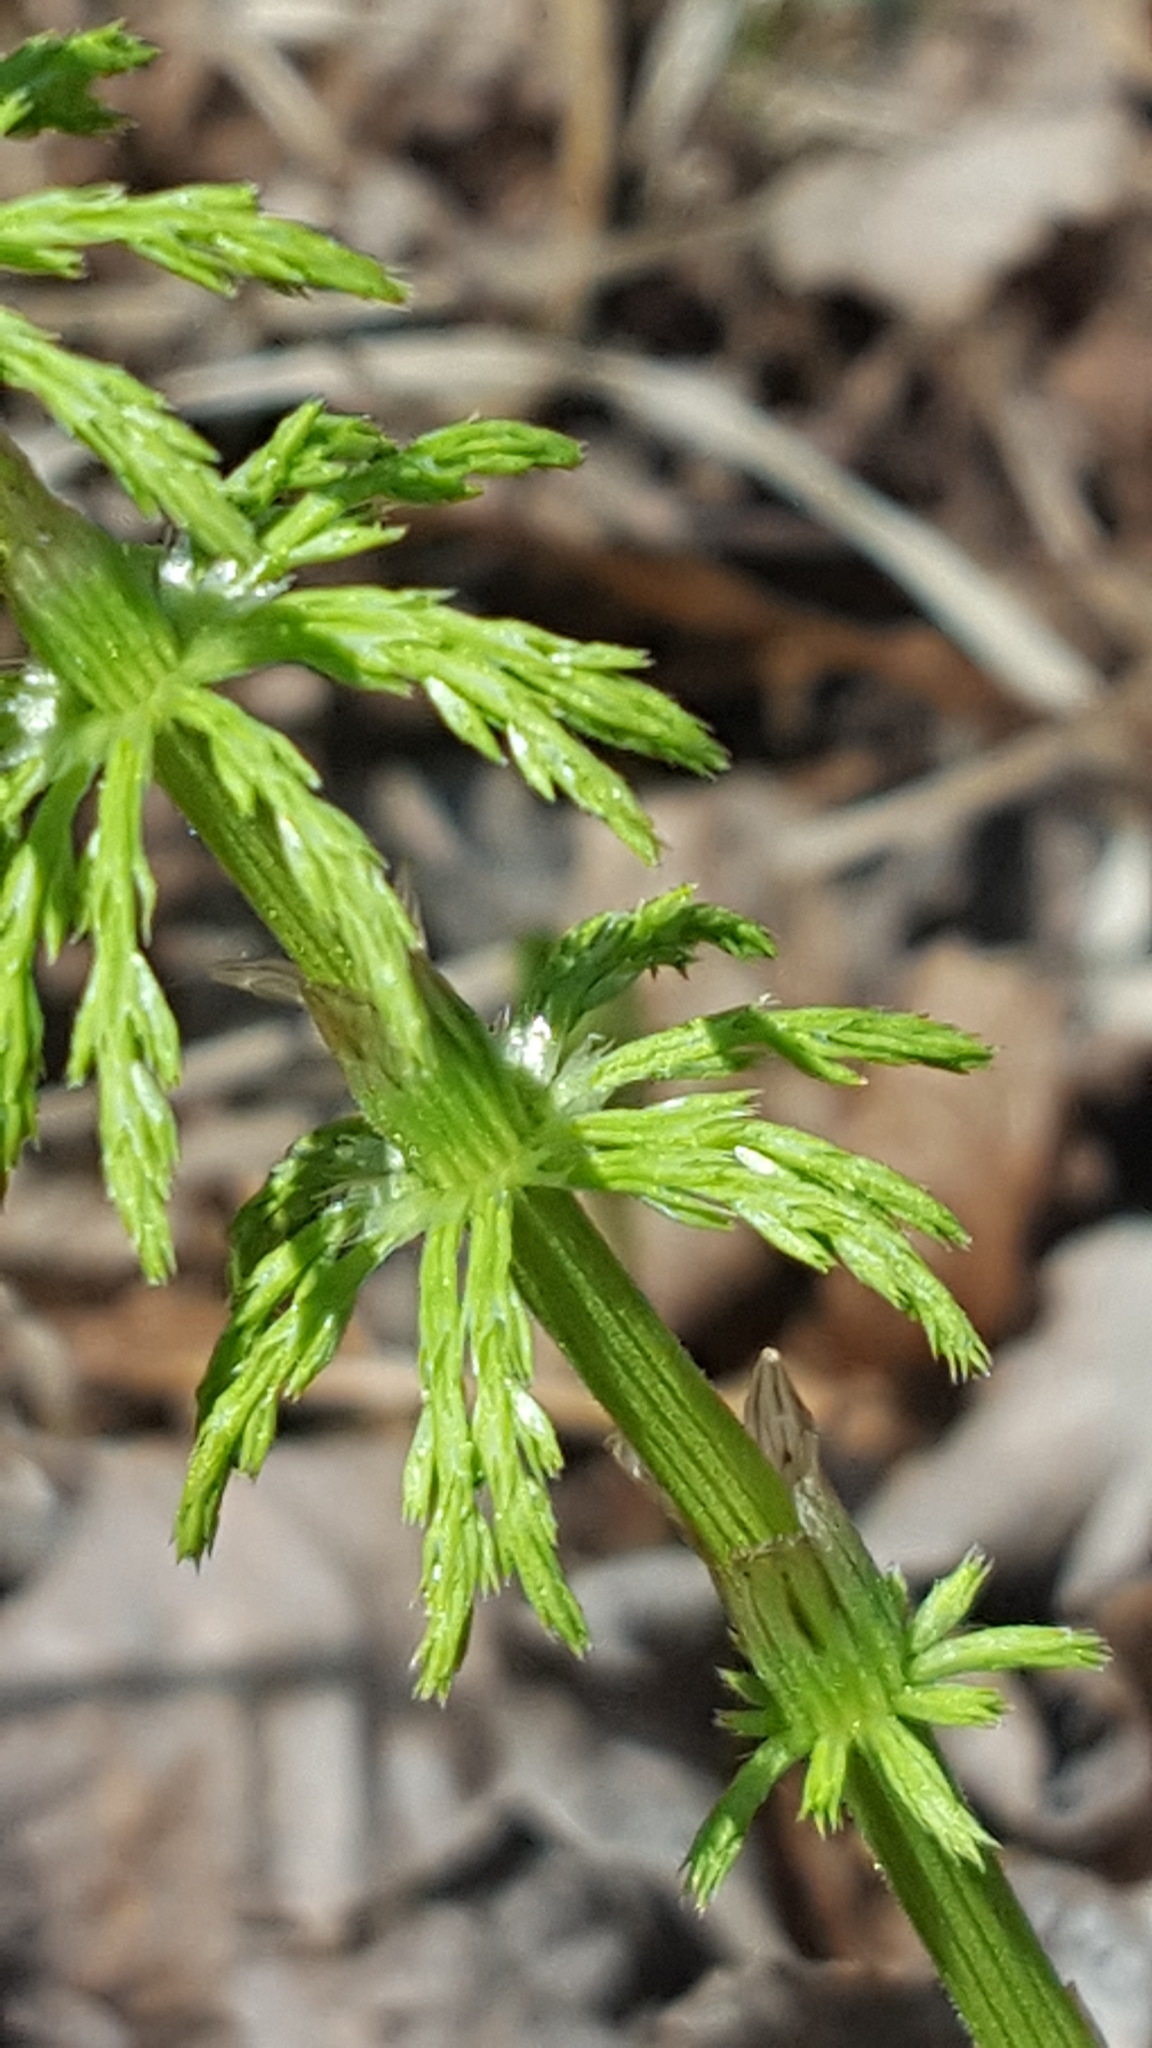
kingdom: Plantae
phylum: Tracheophyta
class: Polypodiopsida
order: Equisetales
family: Equisetaceae
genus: Equisetum
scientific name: Equisetum sylvaticum
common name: Wood horsetail
